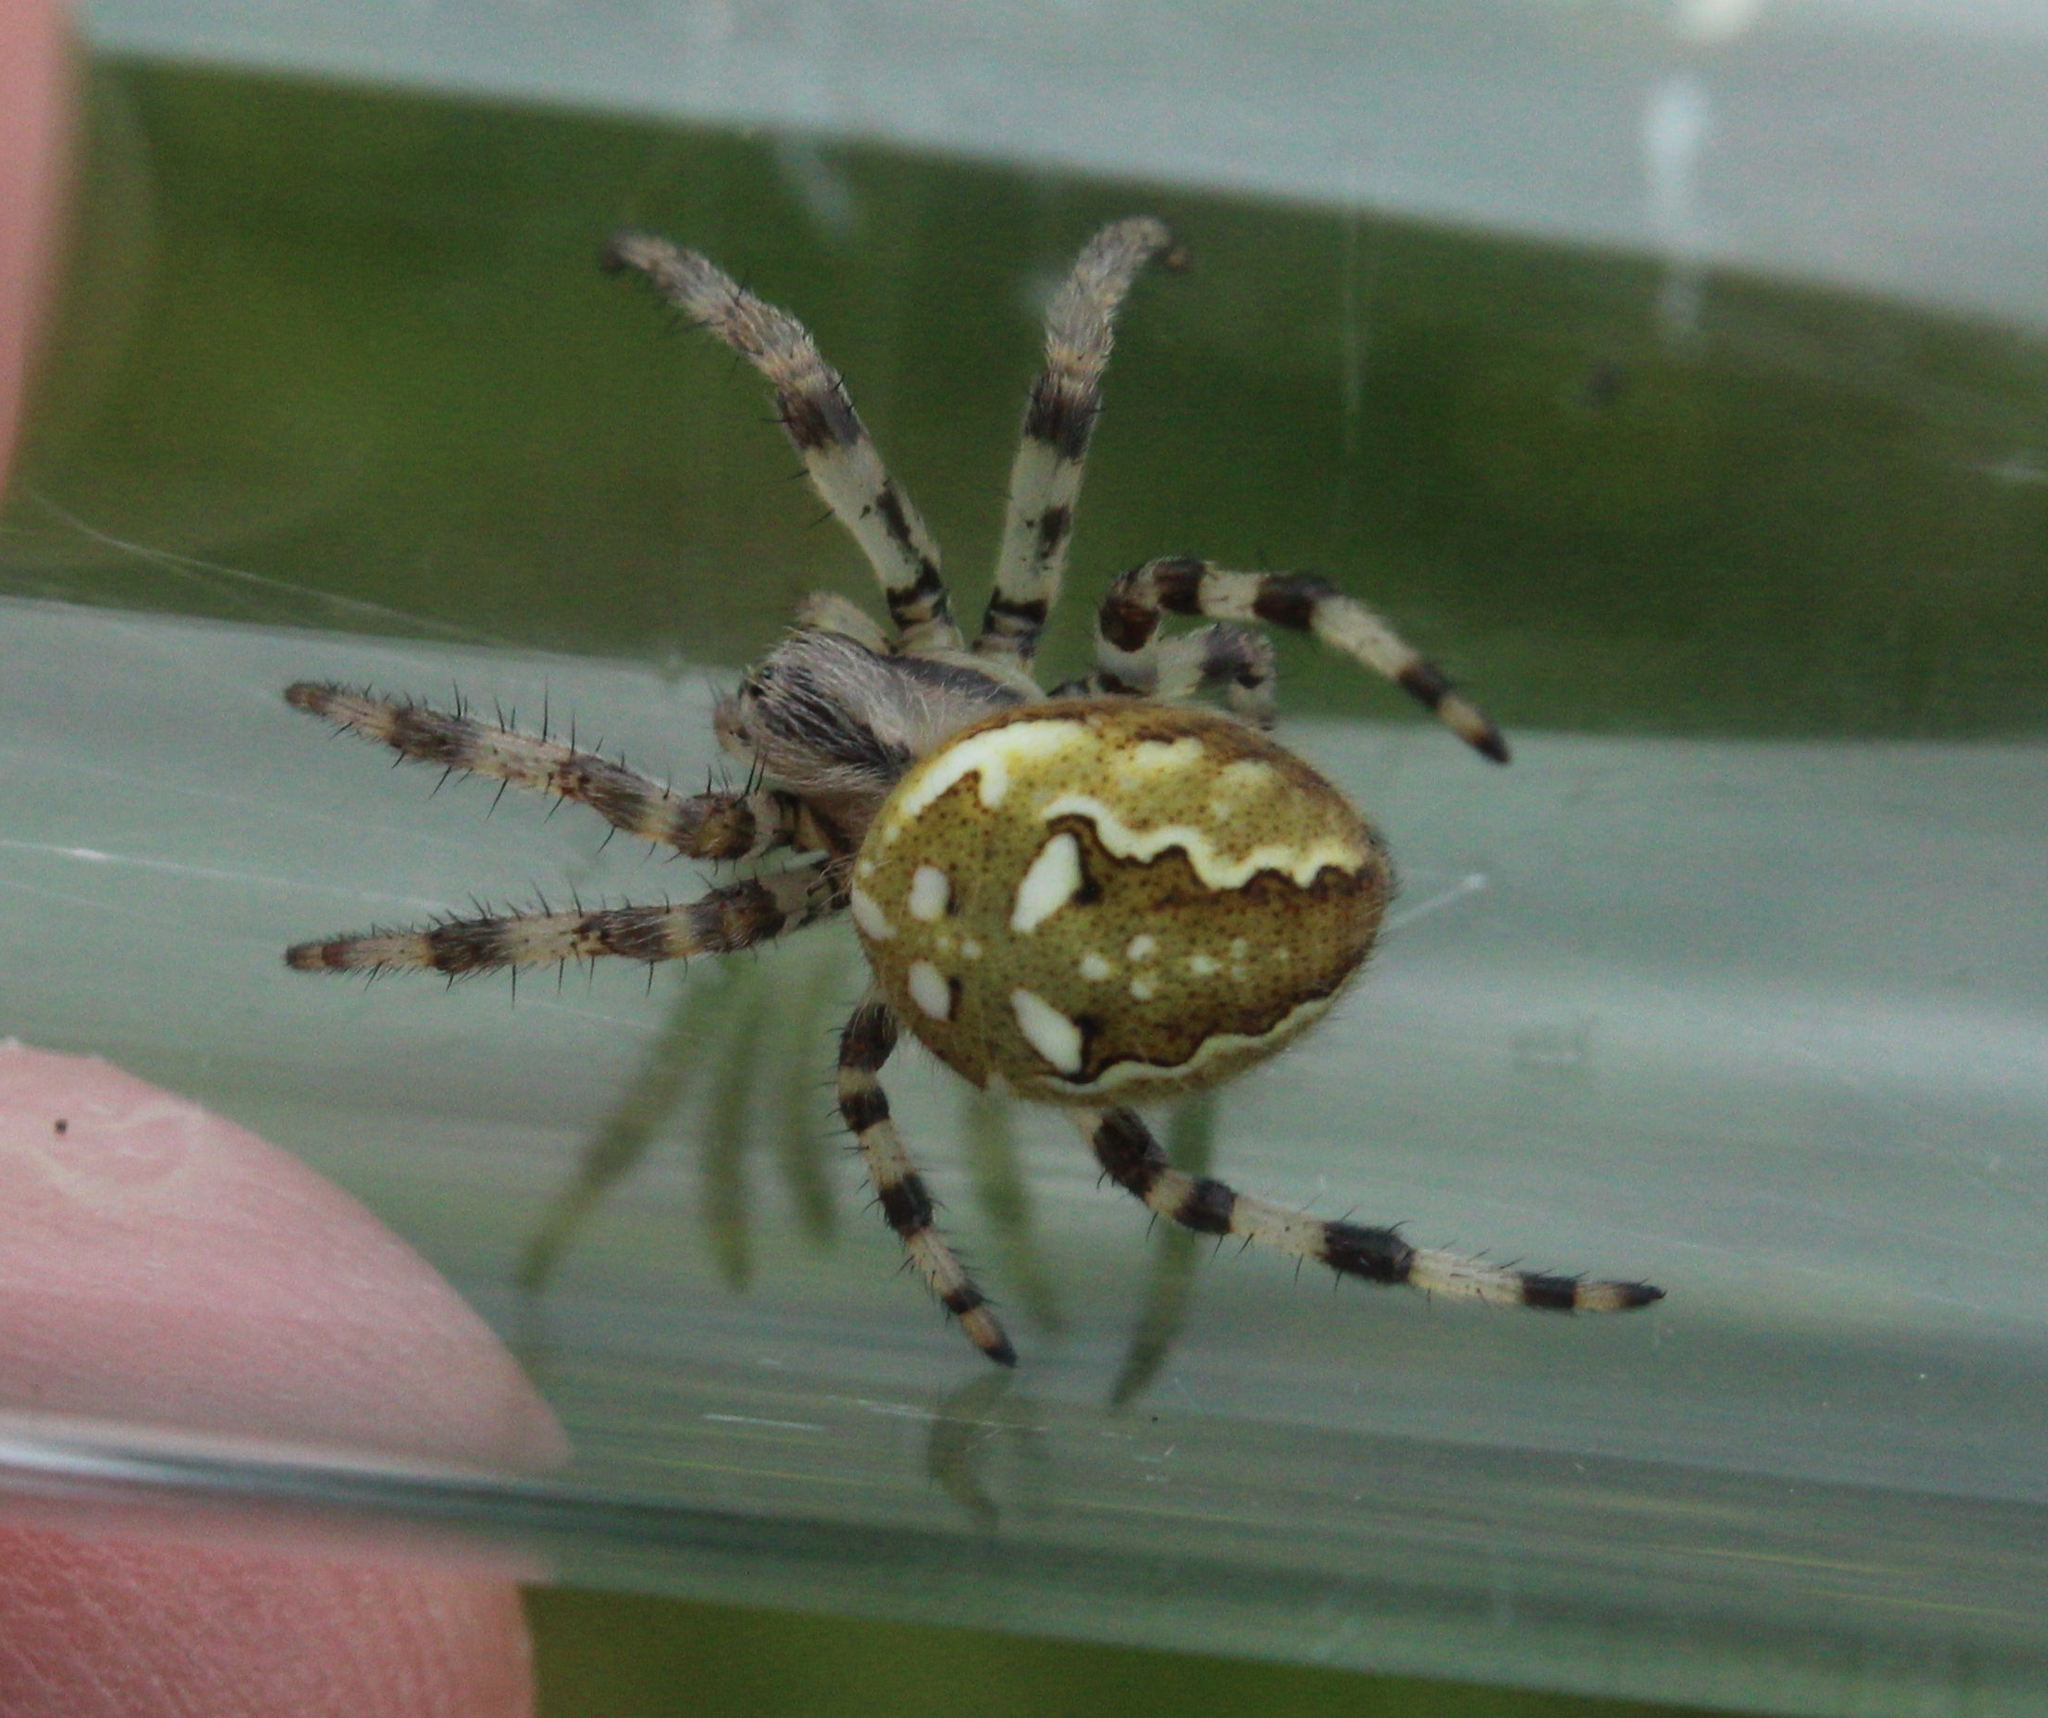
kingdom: Animalia
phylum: Arthropoda
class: Arachnida
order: Araneae
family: Araneidae
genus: Araneus
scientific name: Araneus quadratus
